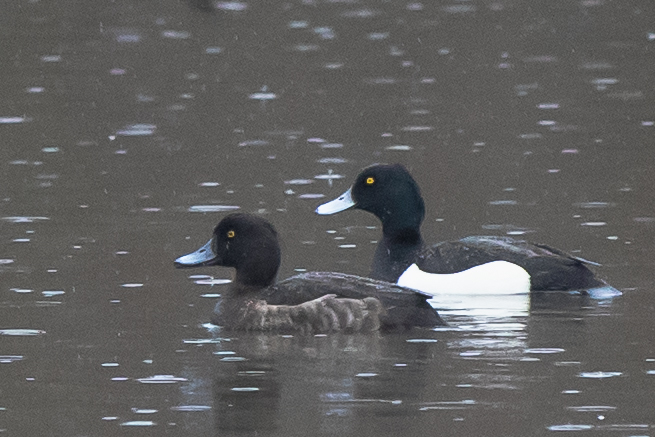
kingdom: Animalia
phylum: Chordata
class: Aves
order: Anseriformes
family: Anatidae
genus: Aythya
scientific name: Aythya fuligula
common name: Tufted duck
